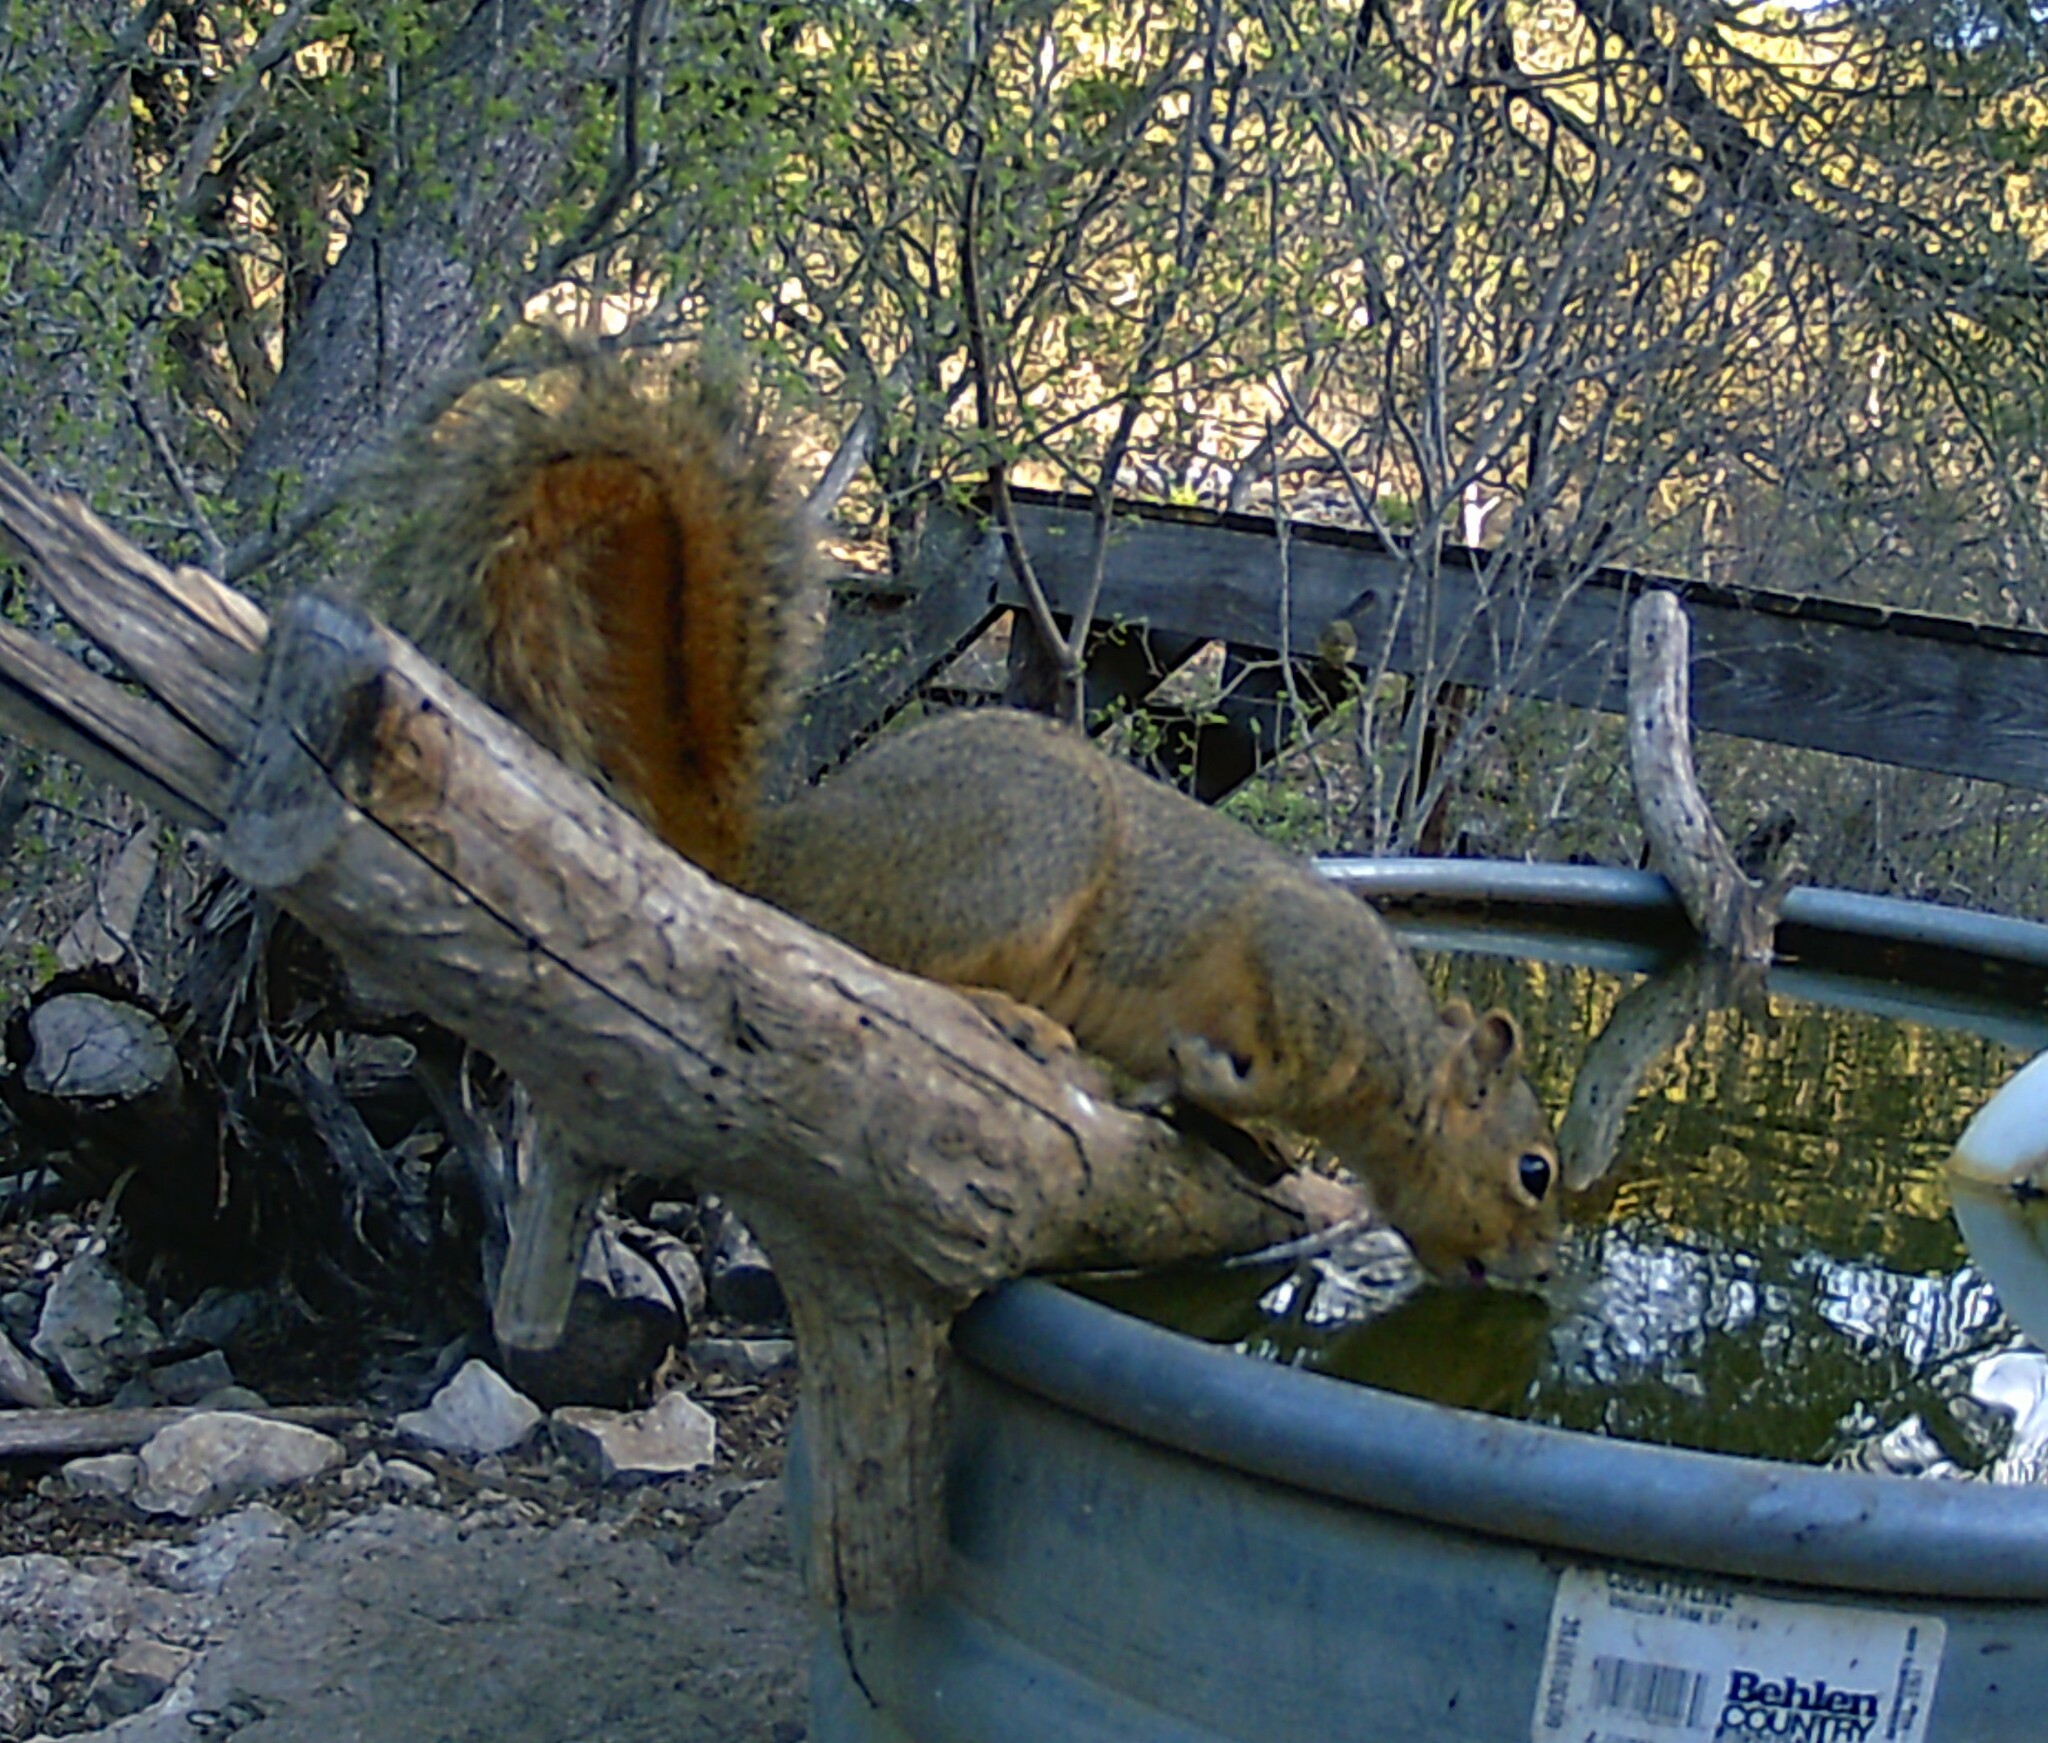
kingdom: Animalia
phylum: Chordata
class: Mammalia
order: Rodentia
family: Sciuridae
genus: Sciurus
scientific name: Sciurus niger
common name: Fox squirrel
